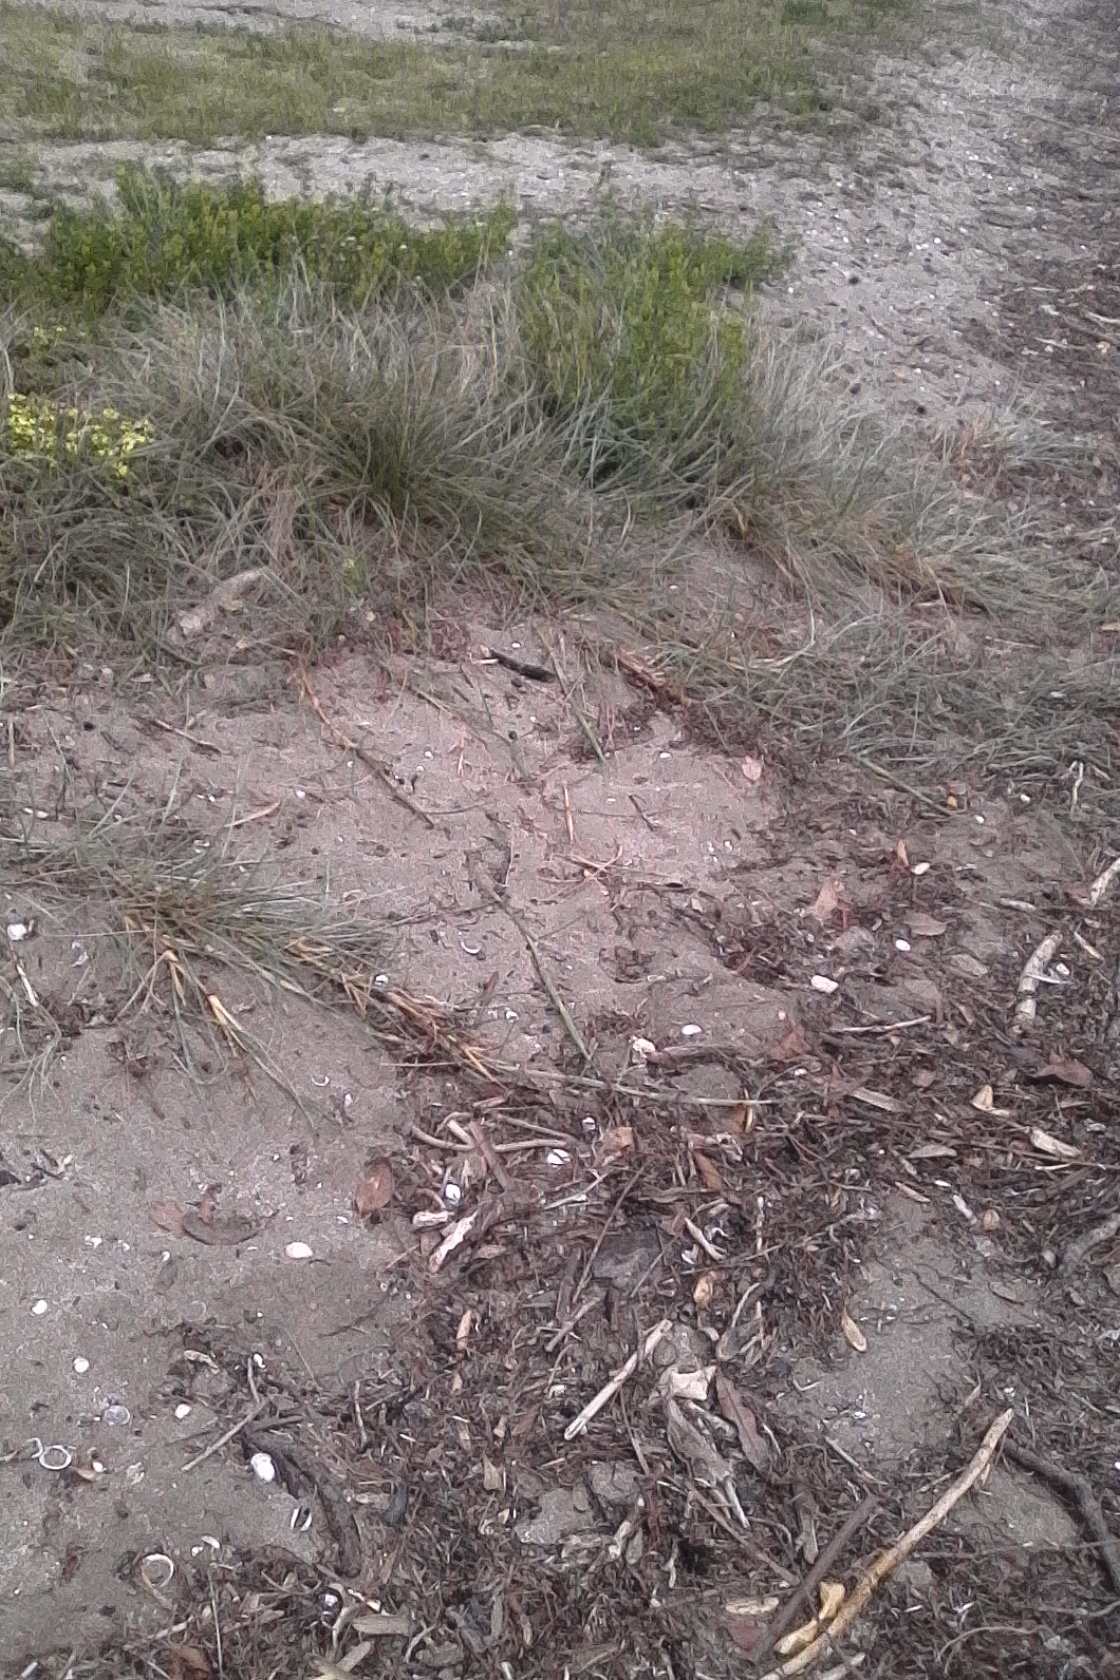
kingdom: Plantae
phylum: Tracheophyta
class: Liliopsida
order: Poales
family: Poaceae
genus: Spinifex
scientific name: Spinifex sericeus
